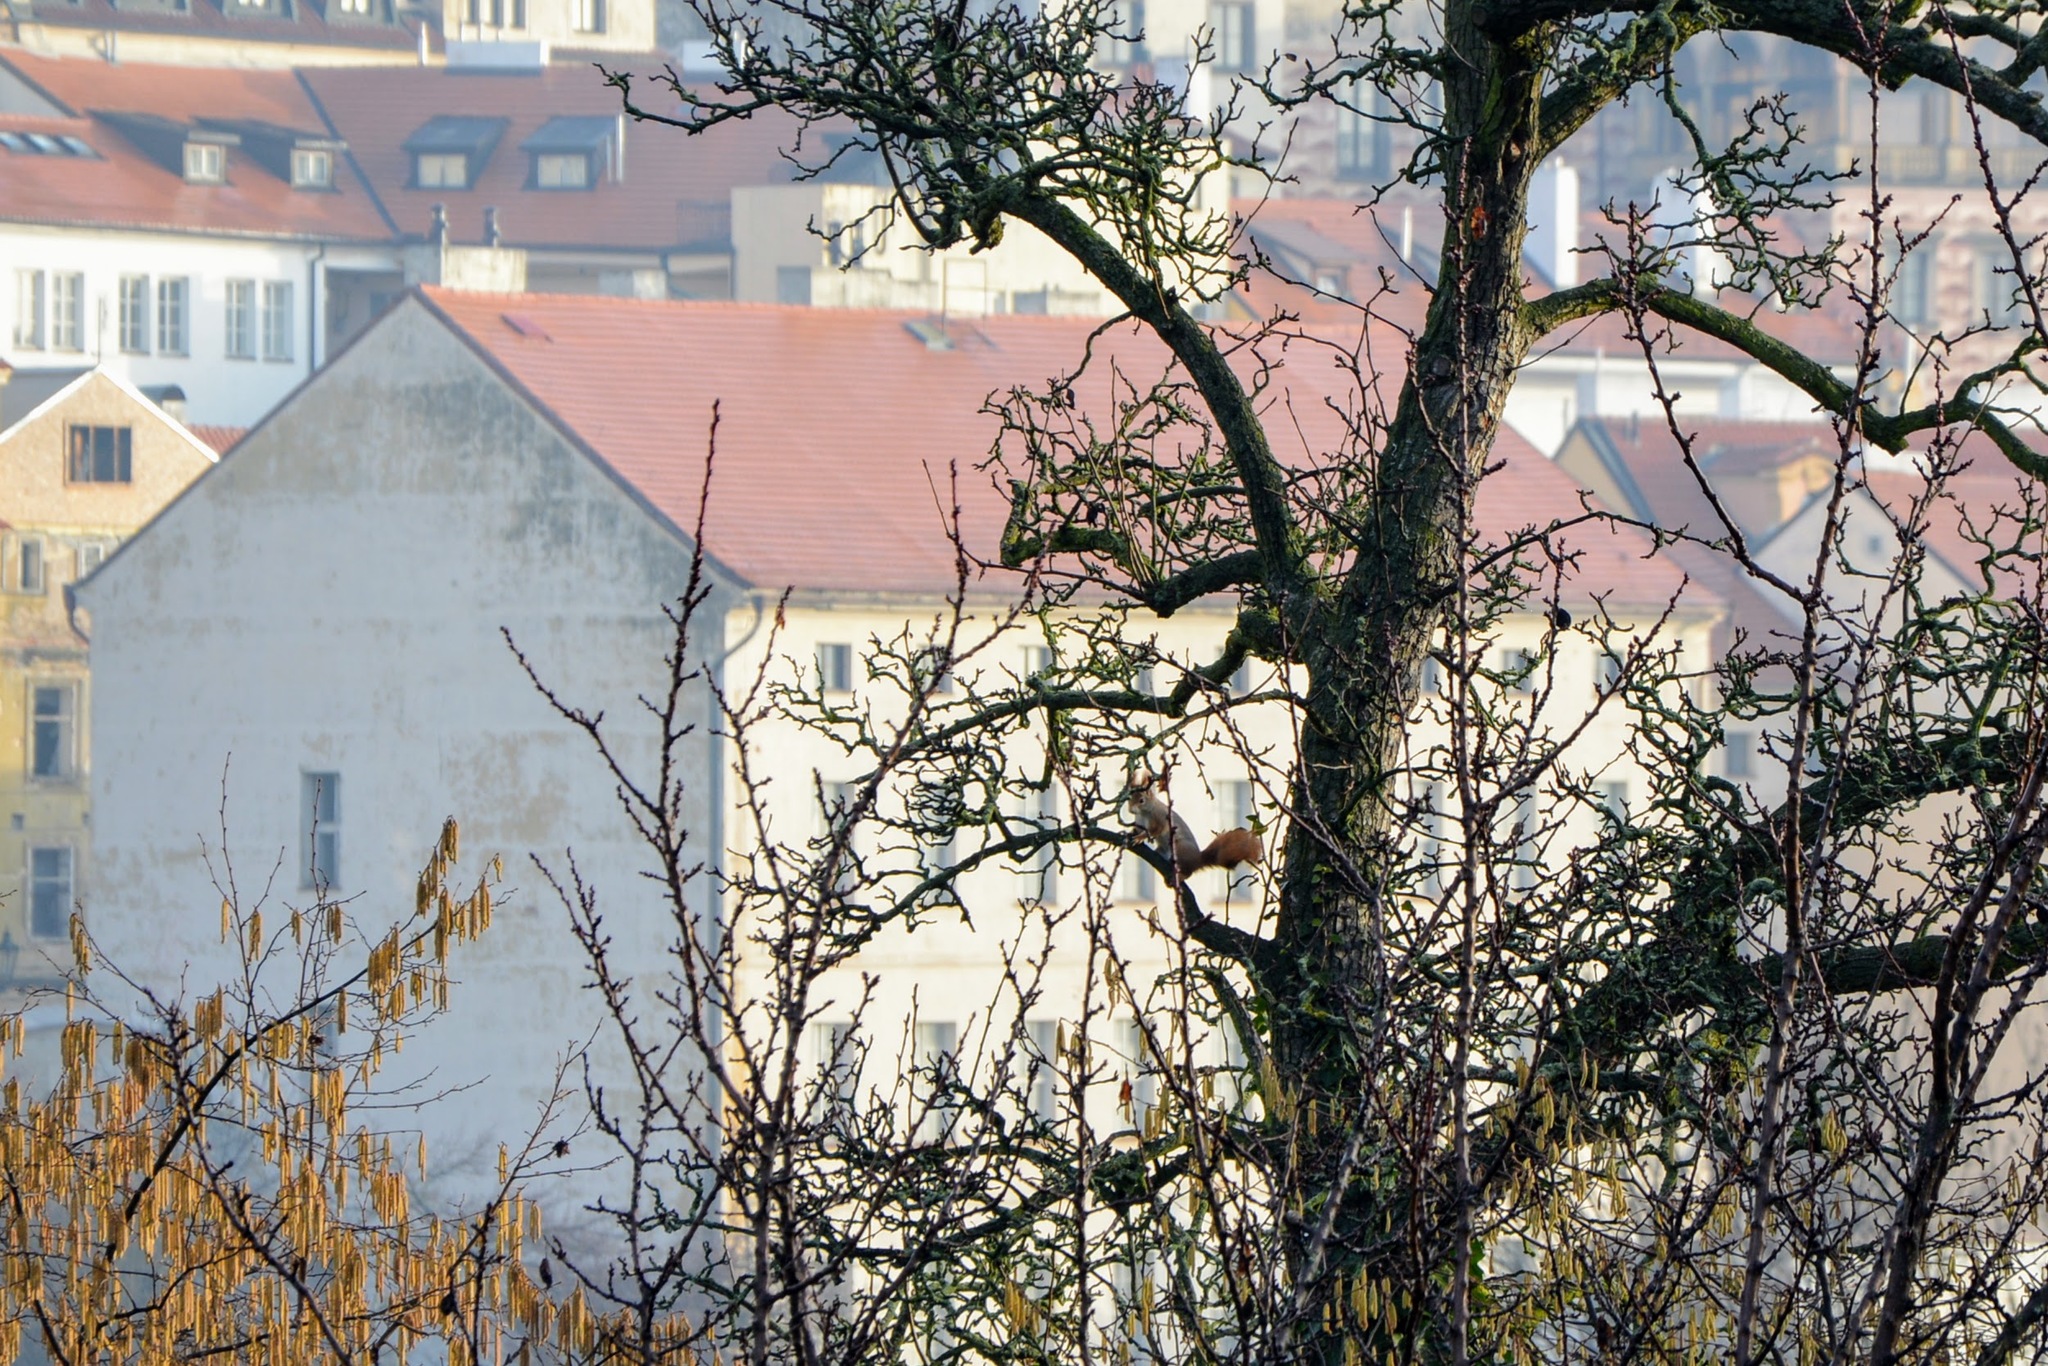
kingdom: Animalia
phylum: Chordata
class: Mammalia
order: Rodentia
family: Sciuridae
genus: Sciurus
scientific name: Sciurus vulgaris
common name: Eurasian red squirrel
